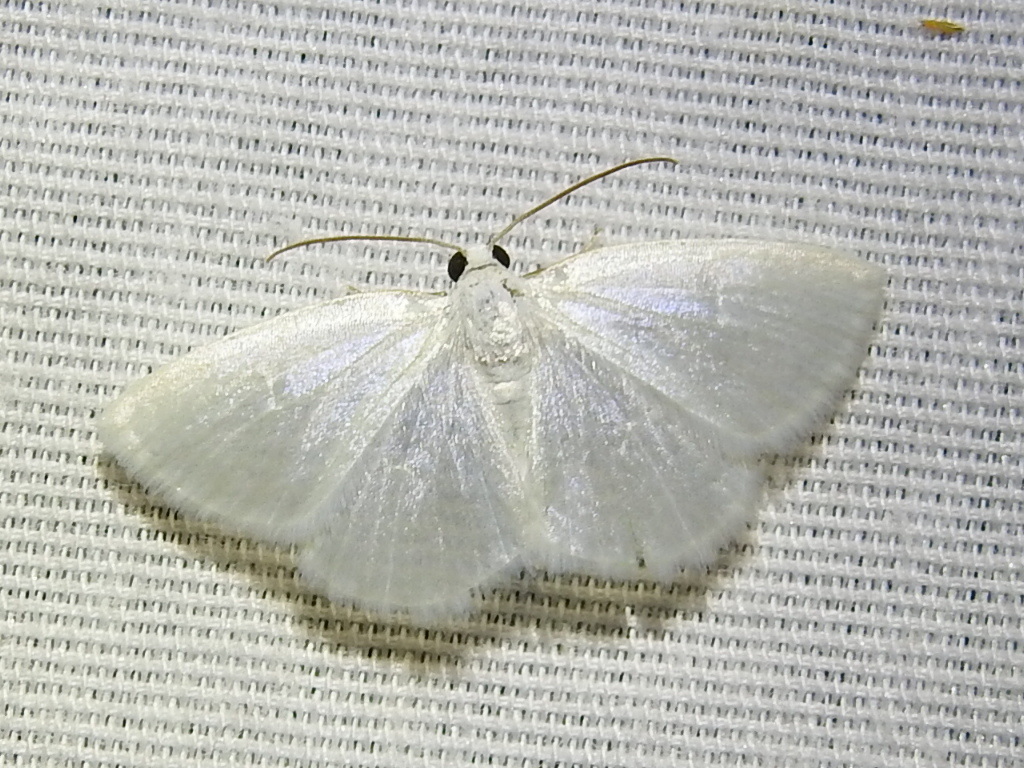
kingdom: Animalia
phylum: Arthropoda
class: Insecta
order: Lepidoptera
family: Geometridae
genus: Lomographa
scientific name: Lomographa vestaliata
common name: White spring moth
